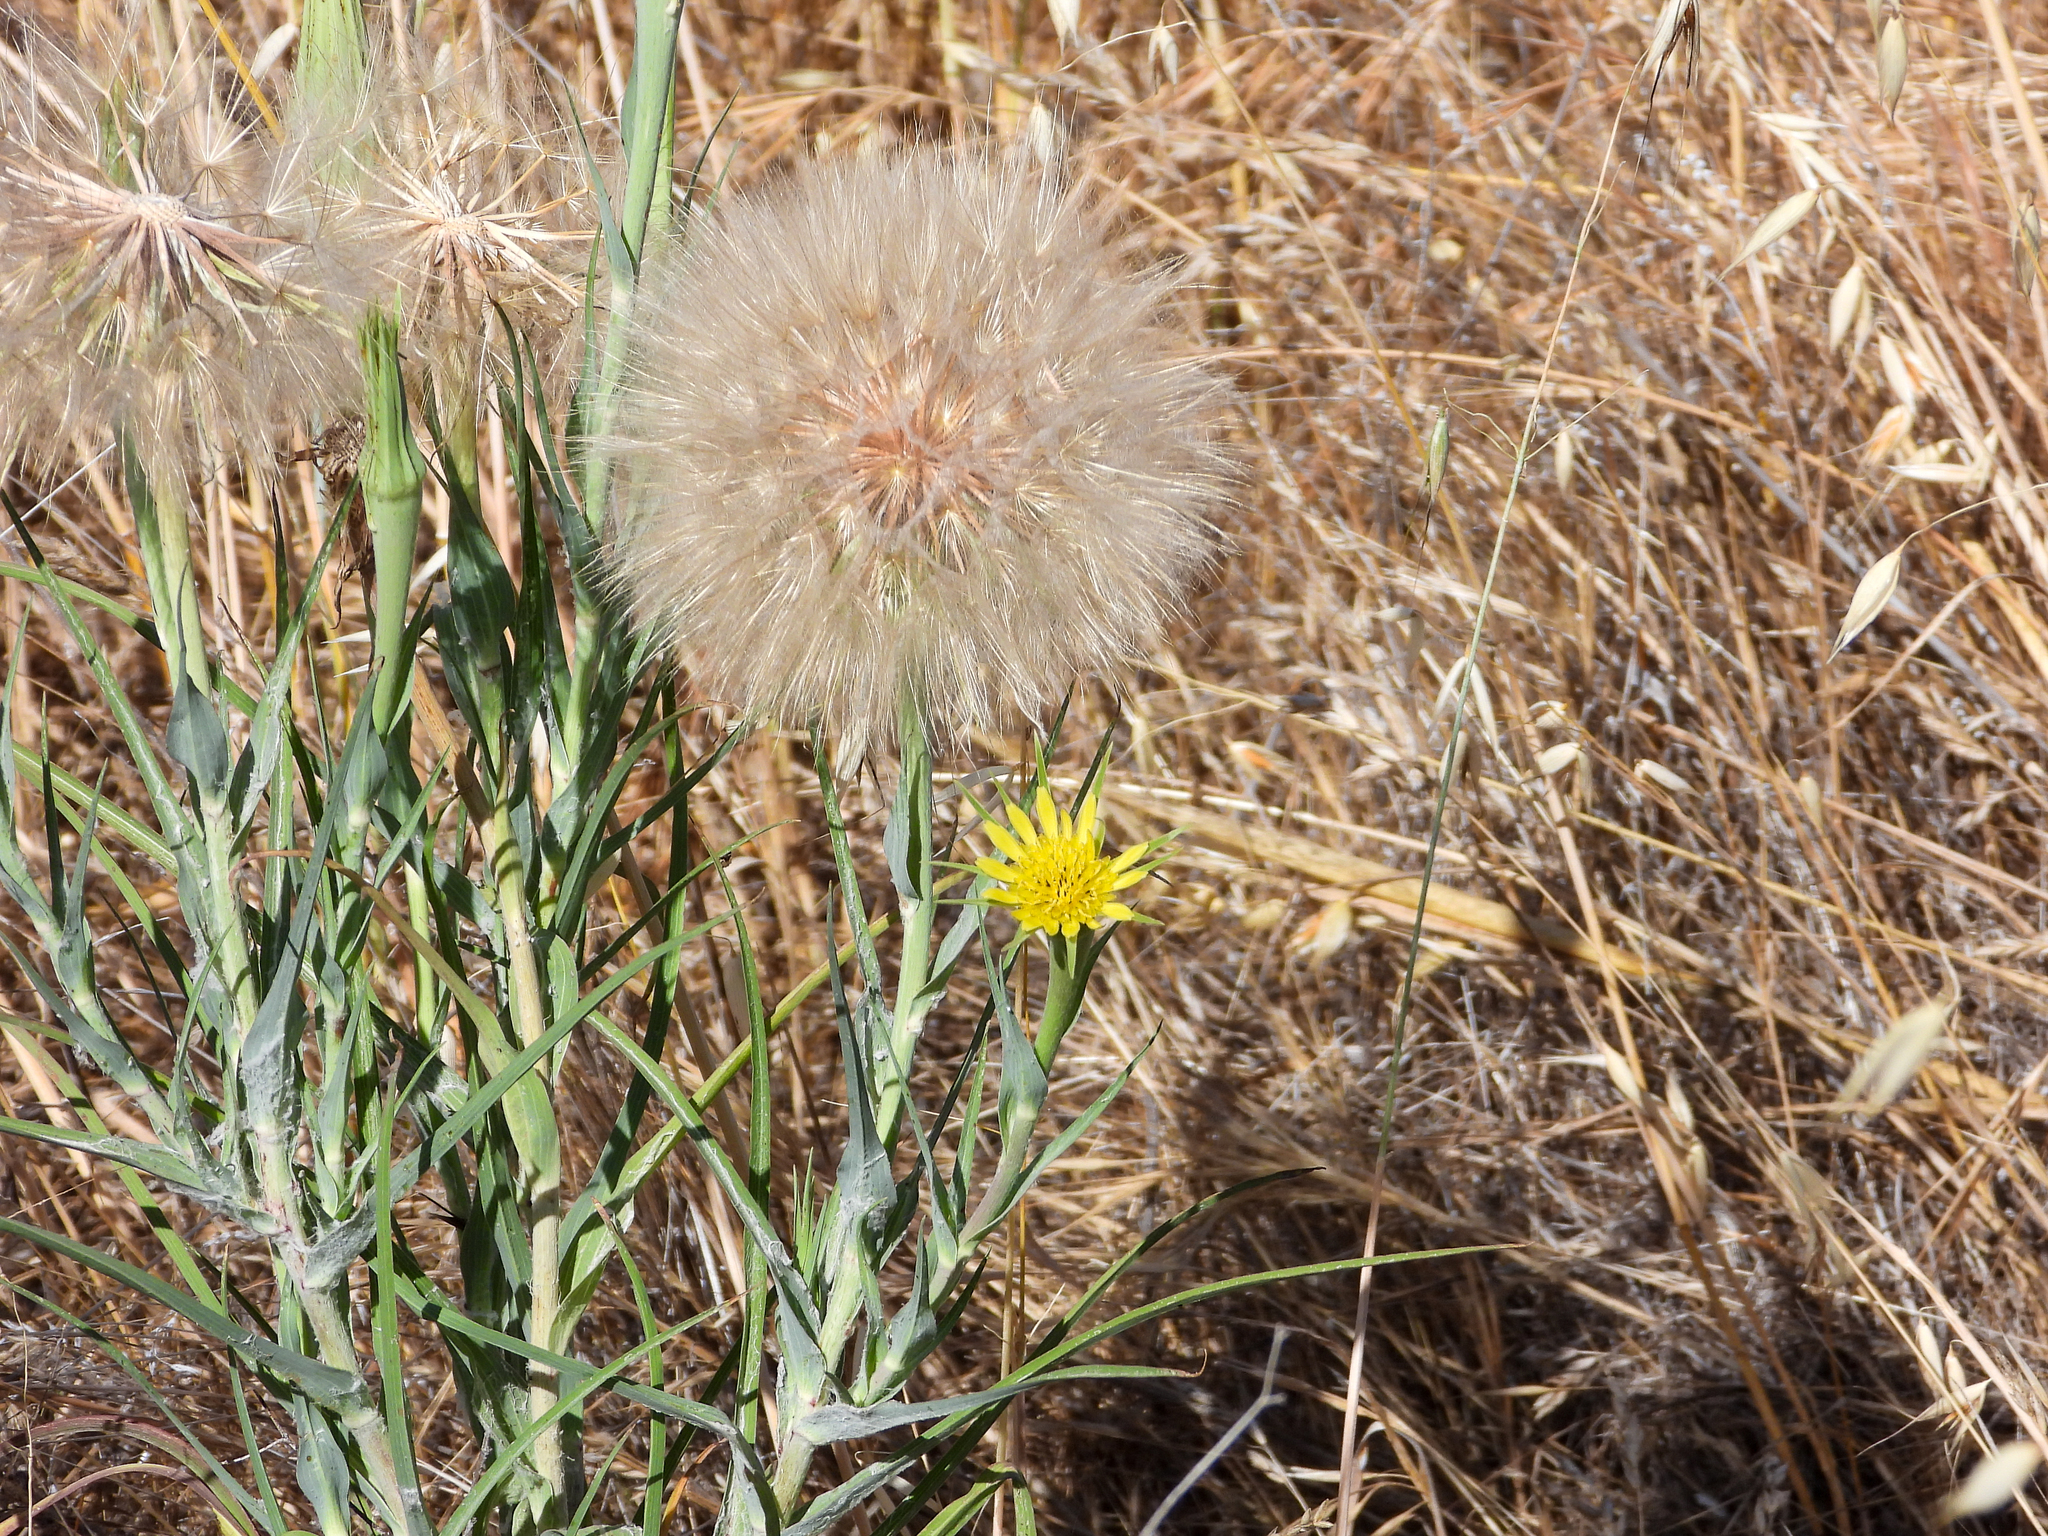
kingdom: Plantae
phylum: Tracheophyta
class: Magnoliopsida
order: Asterales
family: Asteraceae
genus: Tragopogon
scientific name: Tragopogon dubius
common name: Yellow salsify
